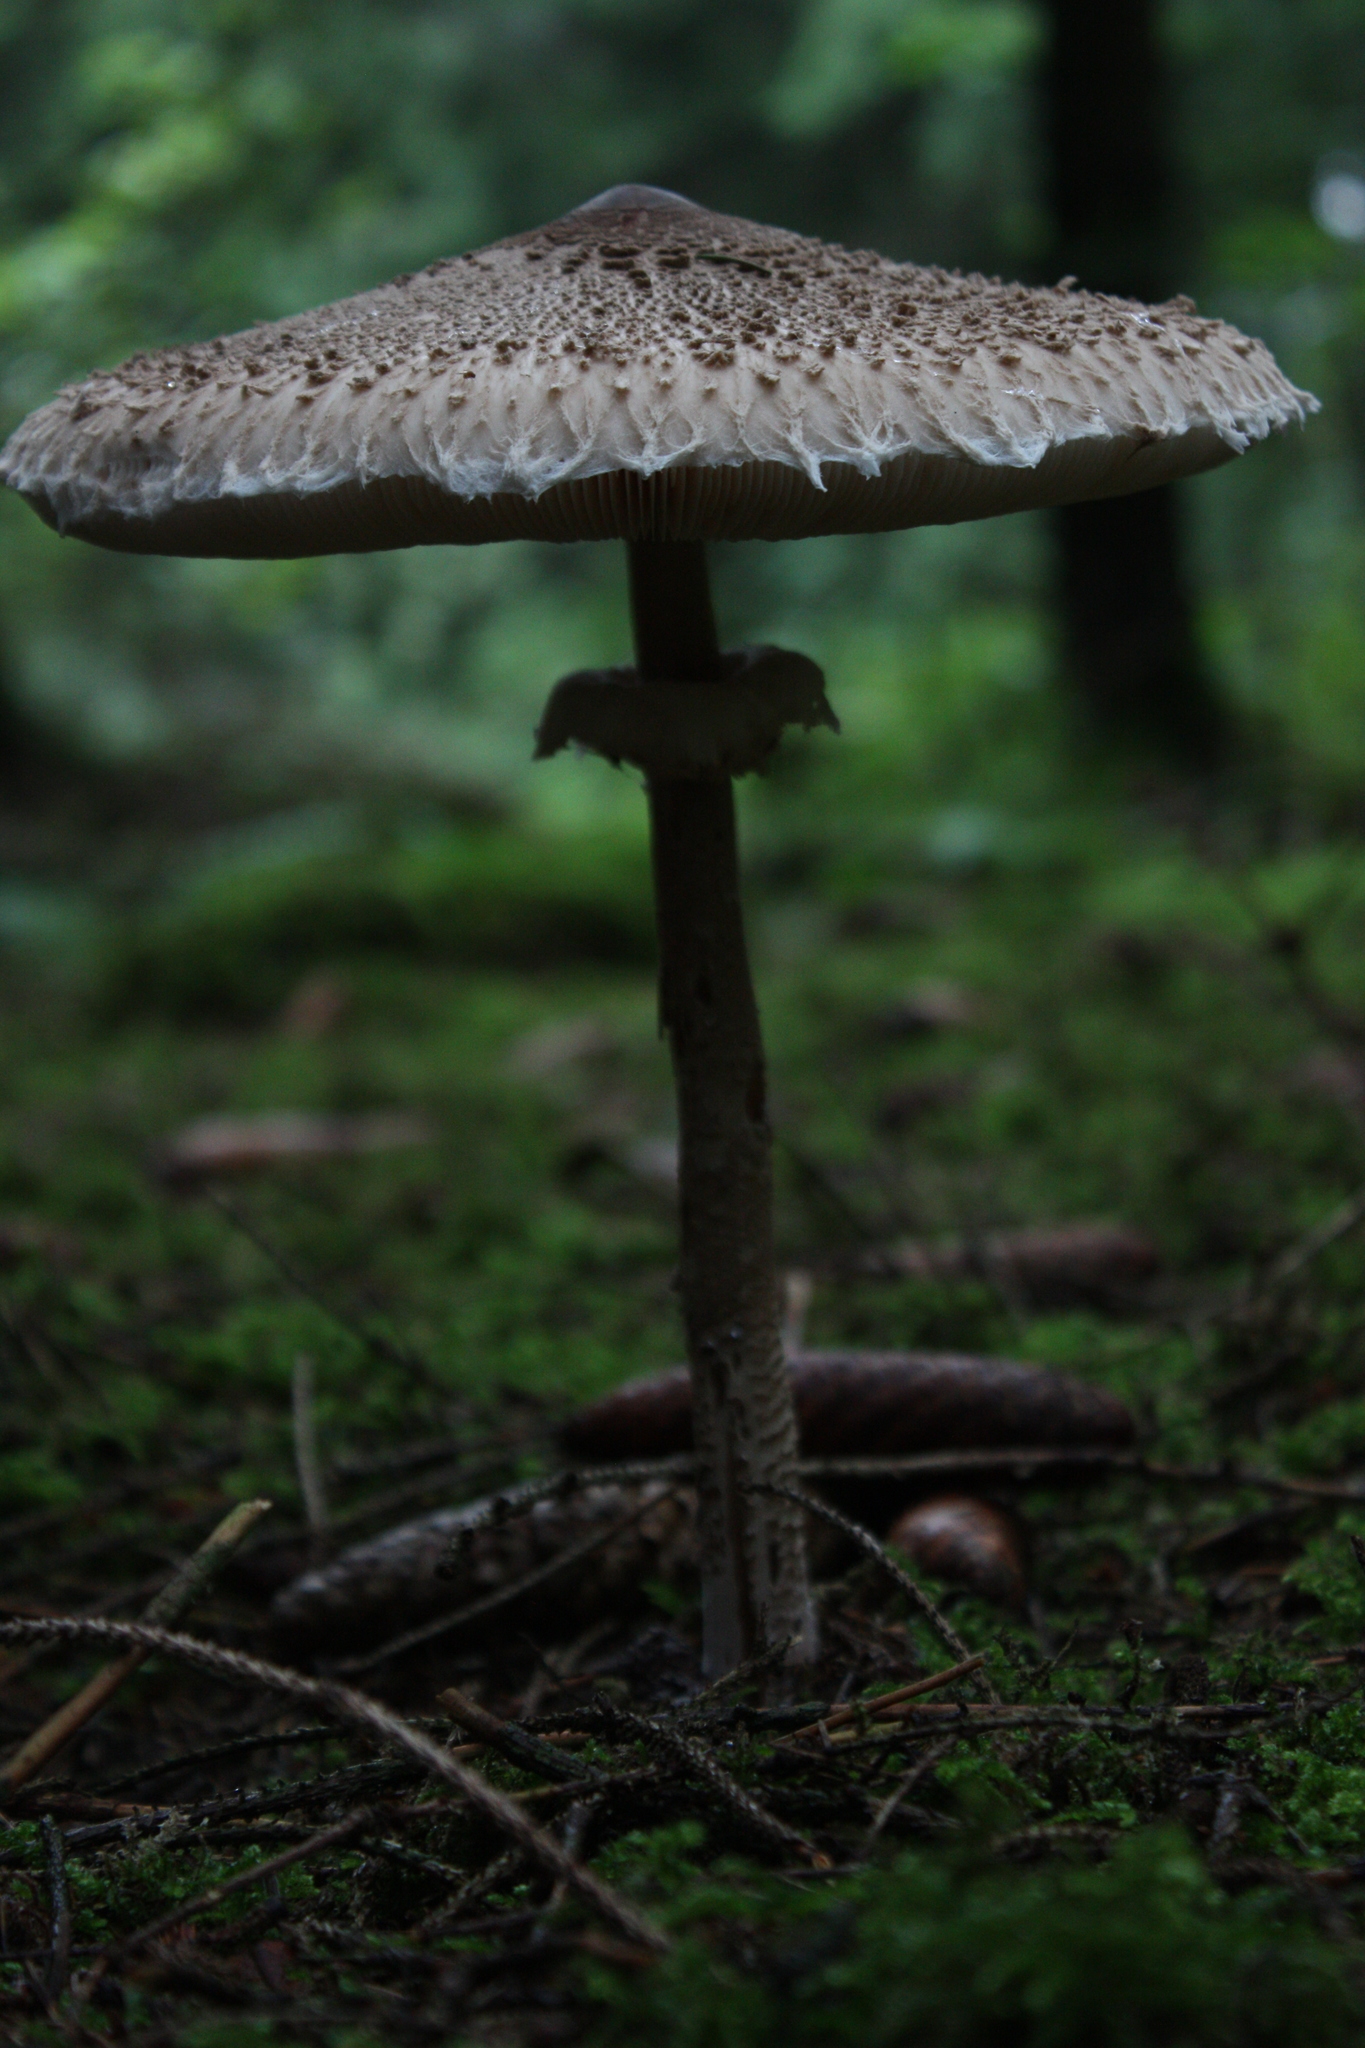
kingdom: Fungi
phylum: Basidiomycota
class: Agaricomycetes
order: Agaricales
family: Agaricaceae
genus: Macrolepiota
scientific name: Macrolepiota procera
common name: Parasol
